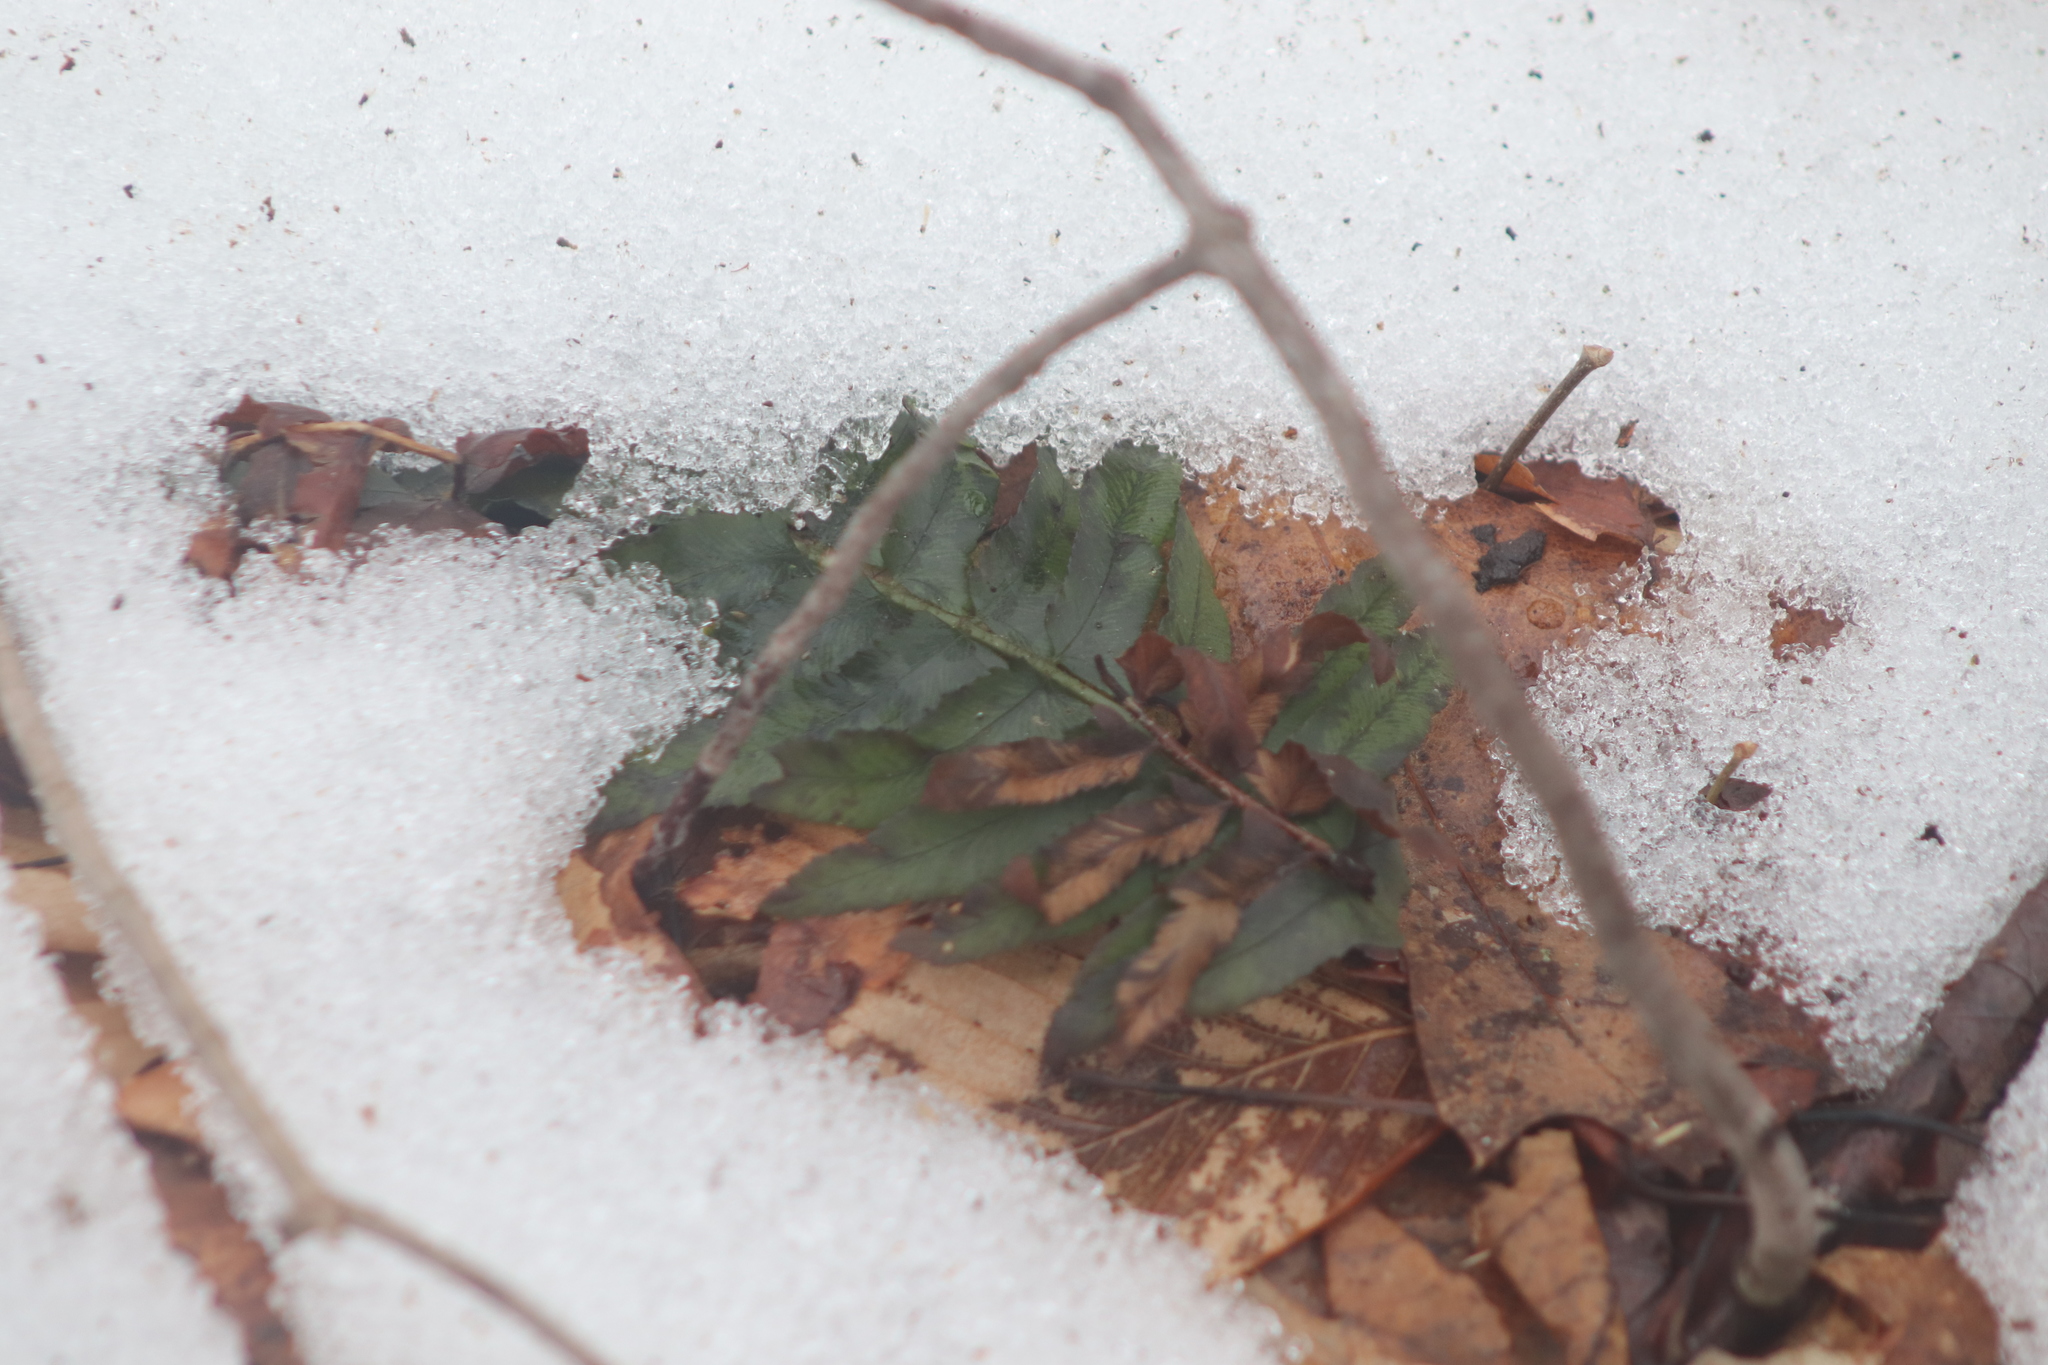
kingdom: Plantae
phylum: Tracheophyta
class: Polypodiopsida
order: Polypodiales
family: Dryopteridaceae
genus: Polystichum
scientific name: Polystichum acrostichoides
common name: Christmas fern
